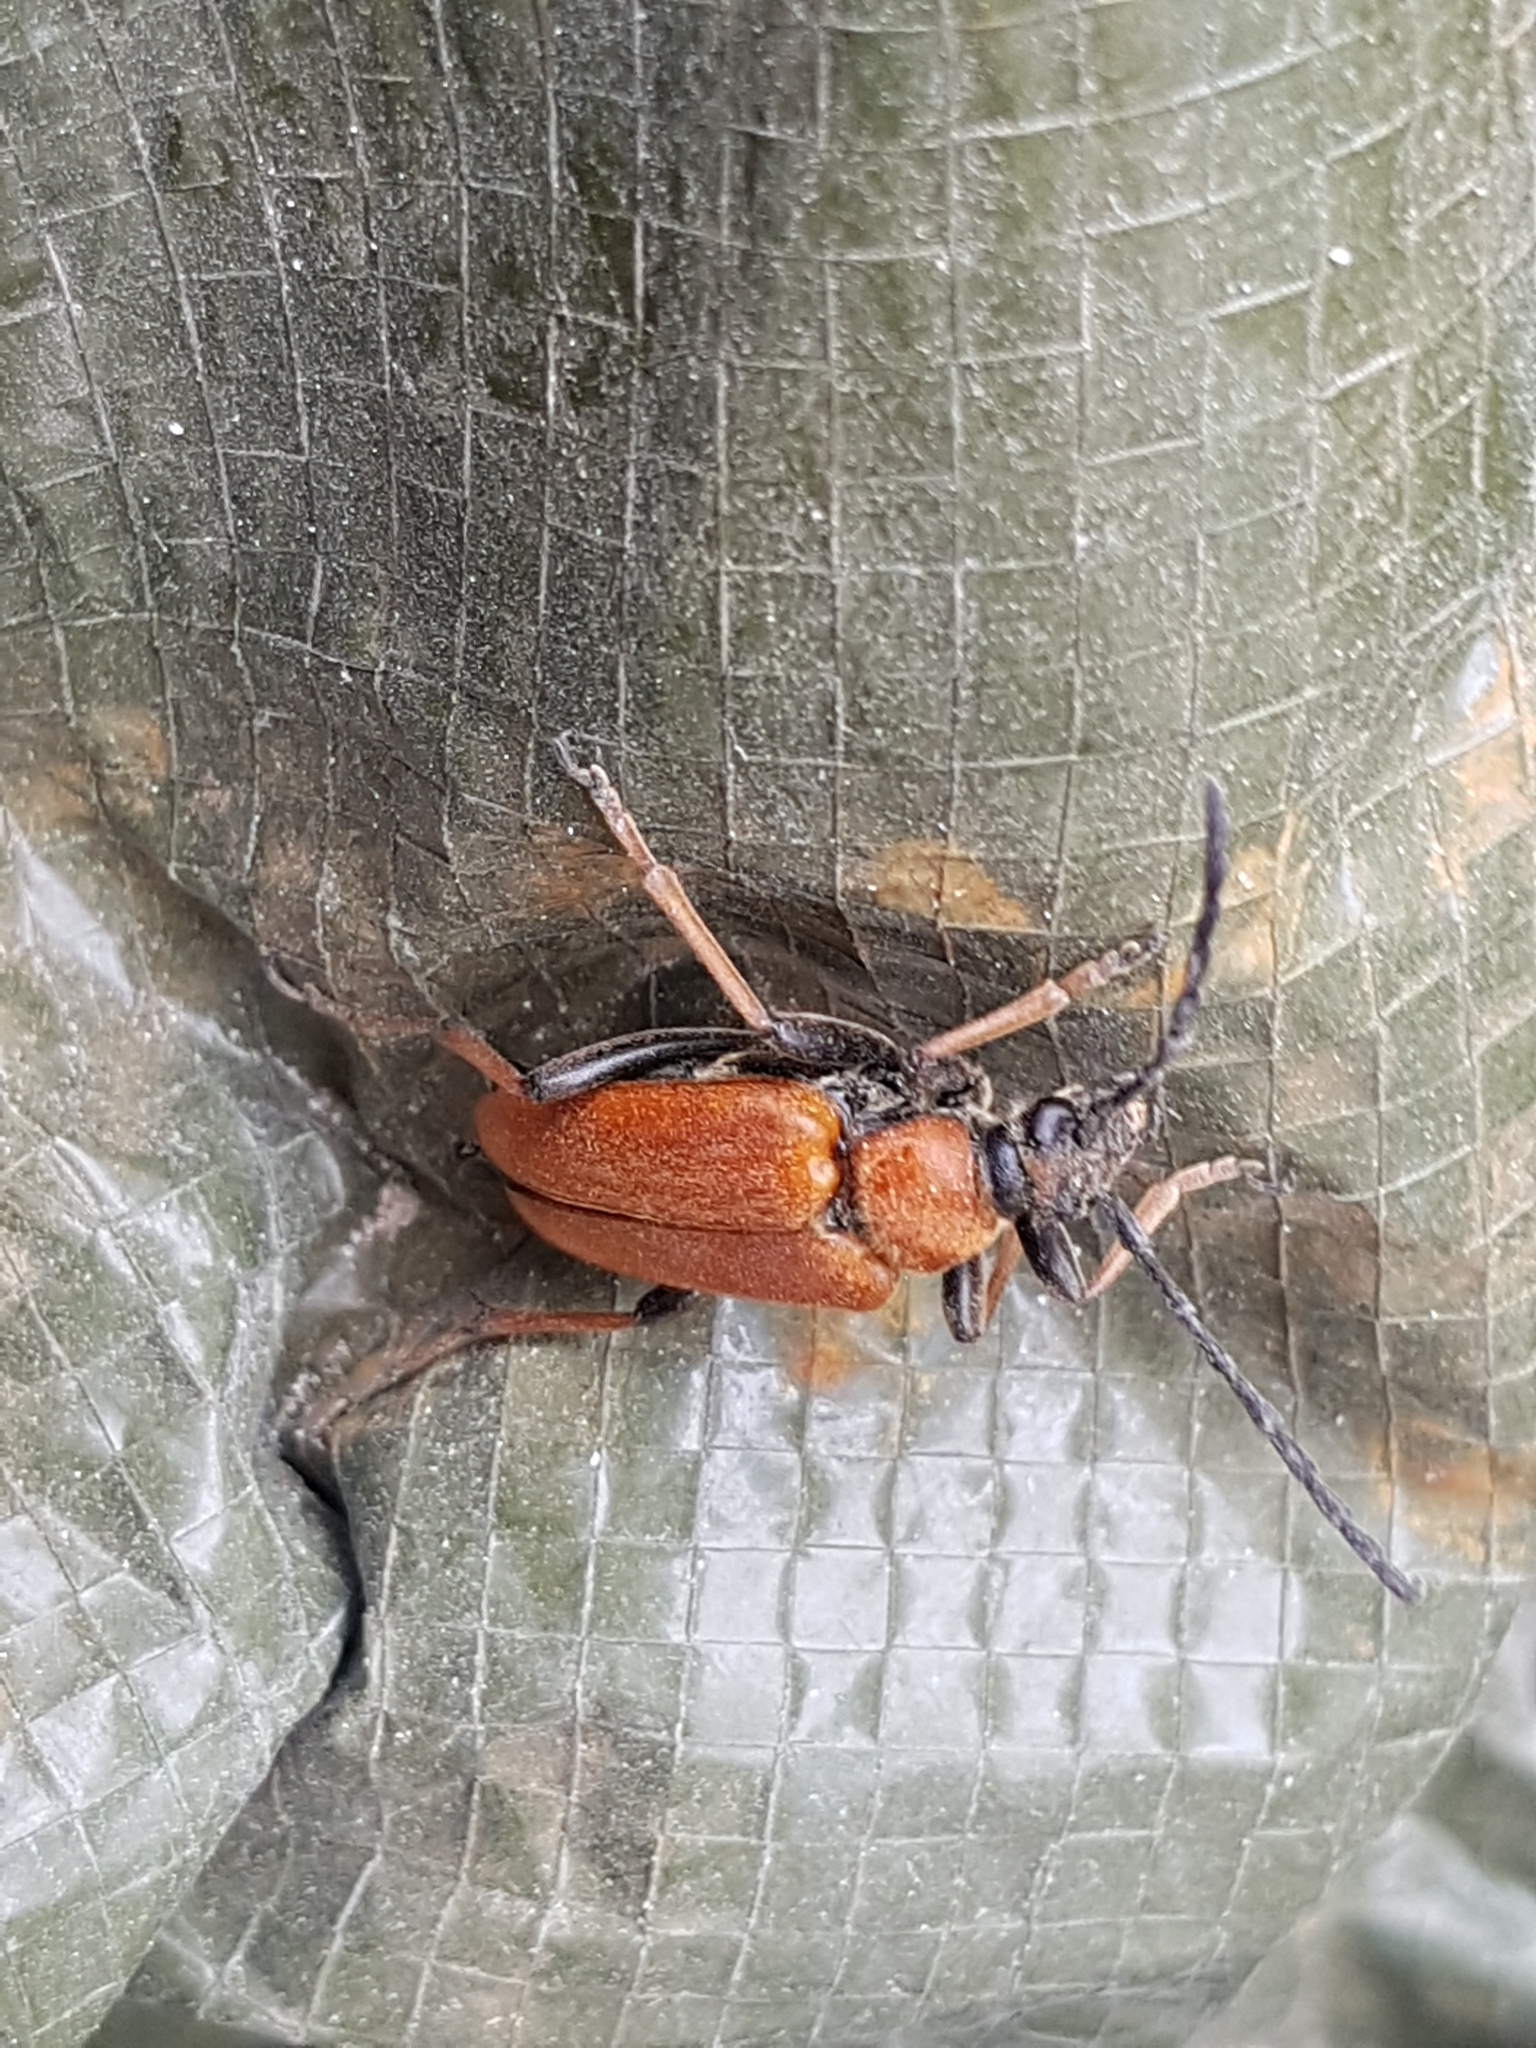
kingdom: Animalia
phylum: Arthropoda
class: Insecta
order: Coleoptera
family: Cerambycidae
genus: Stictoleptura
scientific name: Stictoleptura rubra
